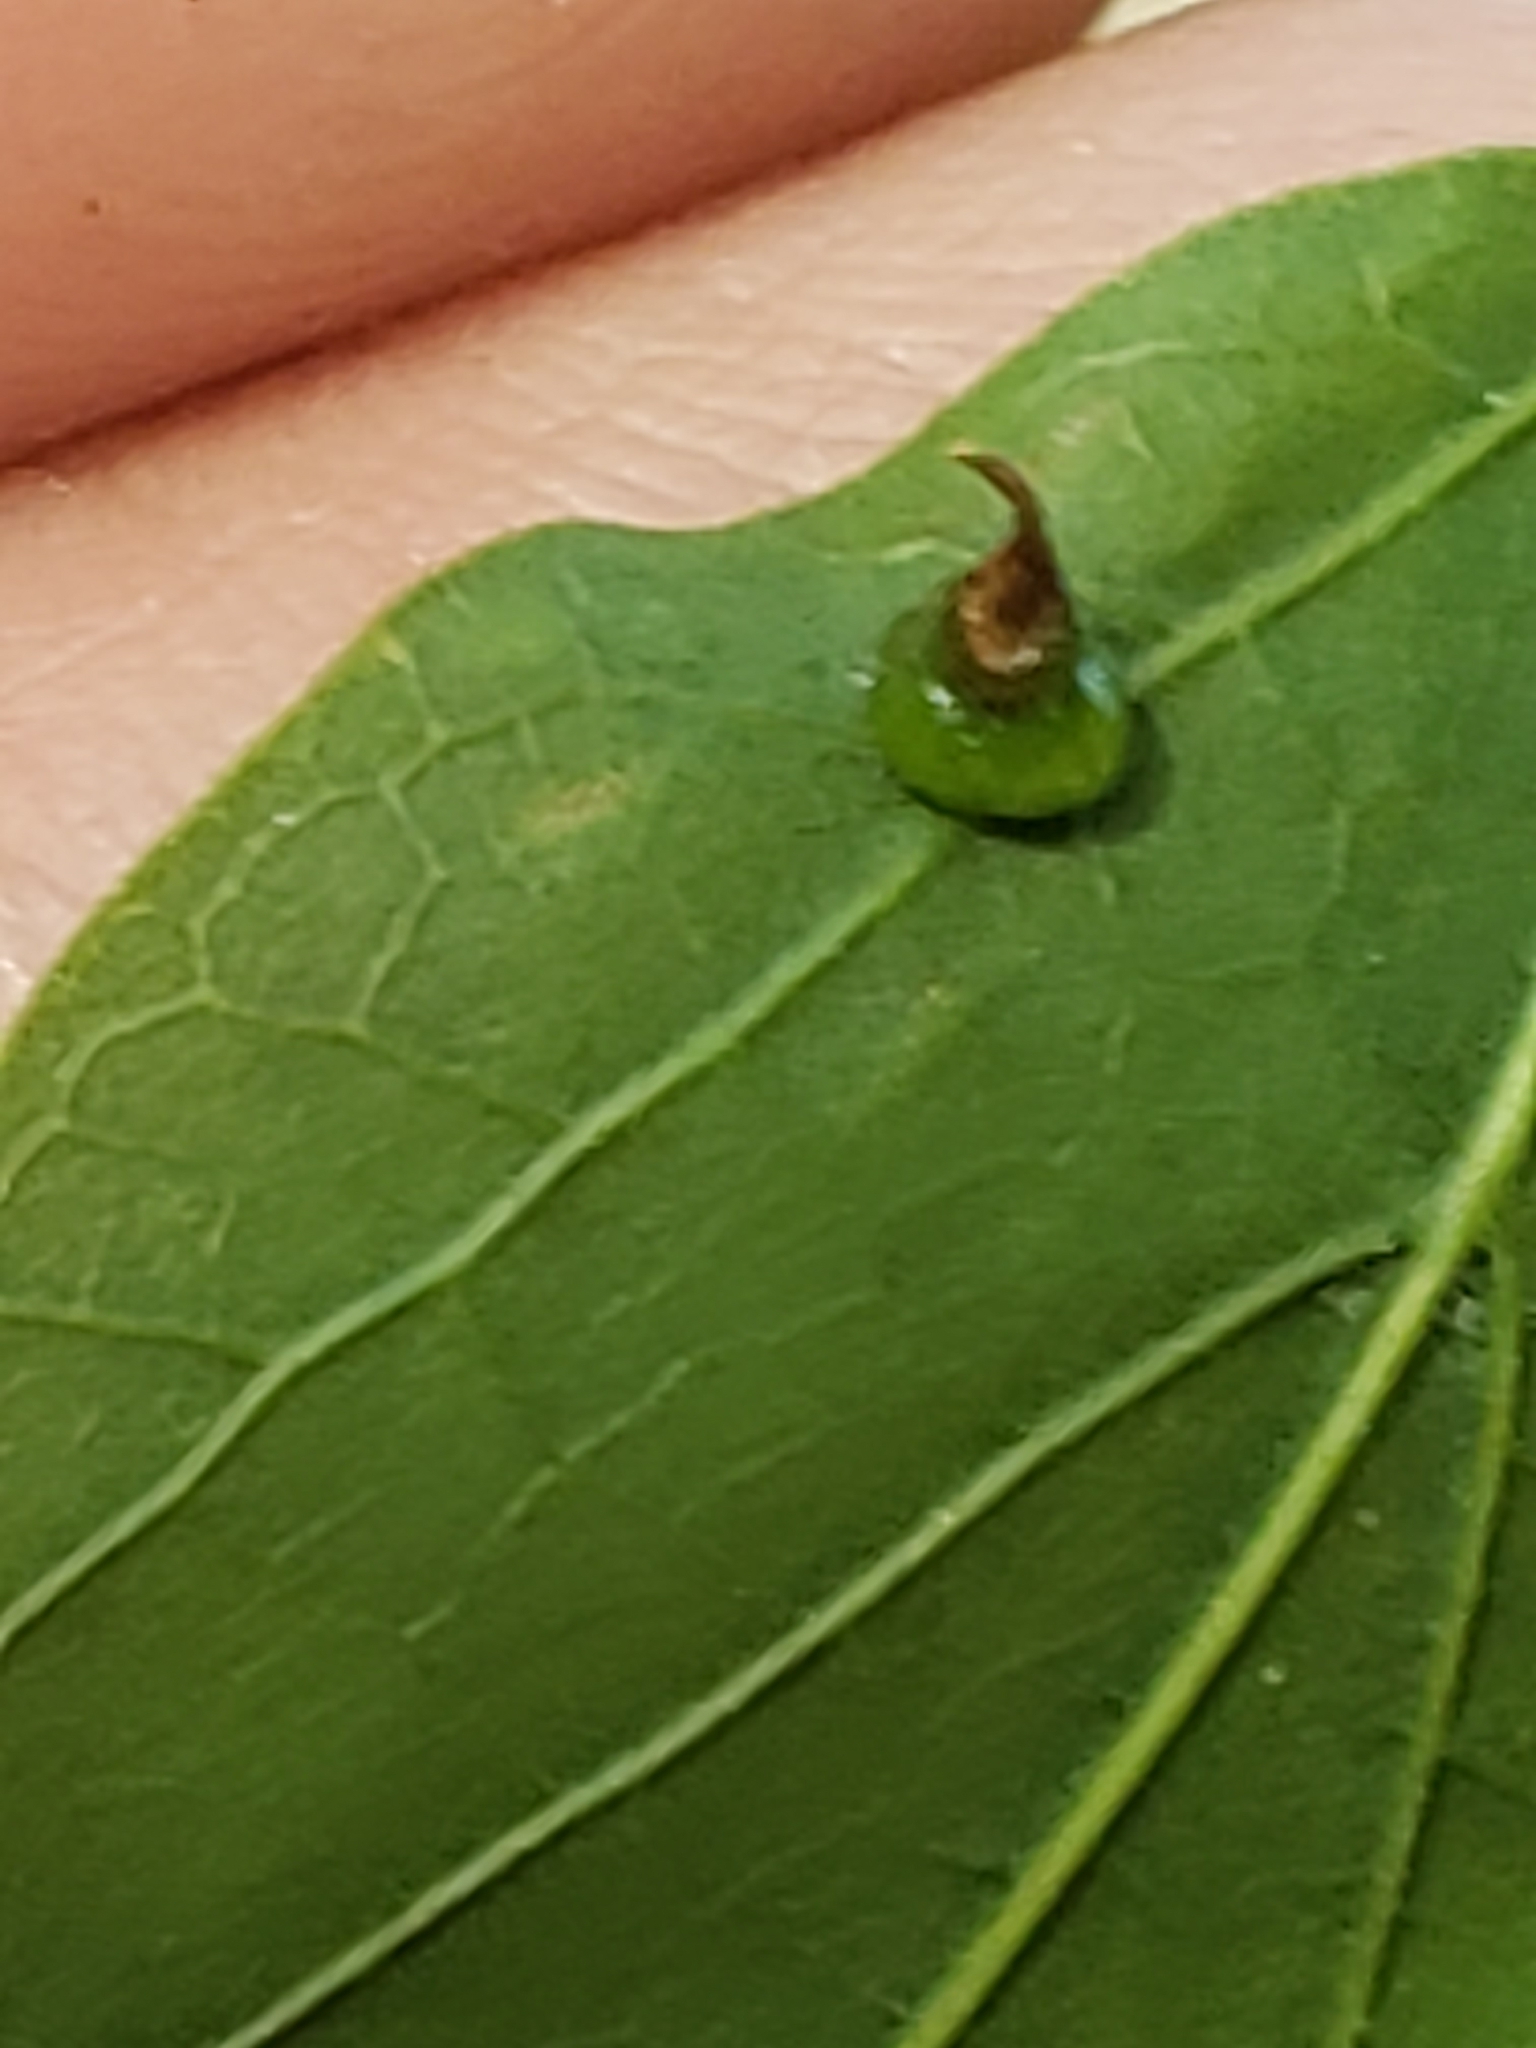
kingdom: Animalia
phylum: Arthropoda
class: Insecta
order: Diptera
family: Cecidomyiidae
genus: Celticecis
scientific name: Celticecis spiniformis
